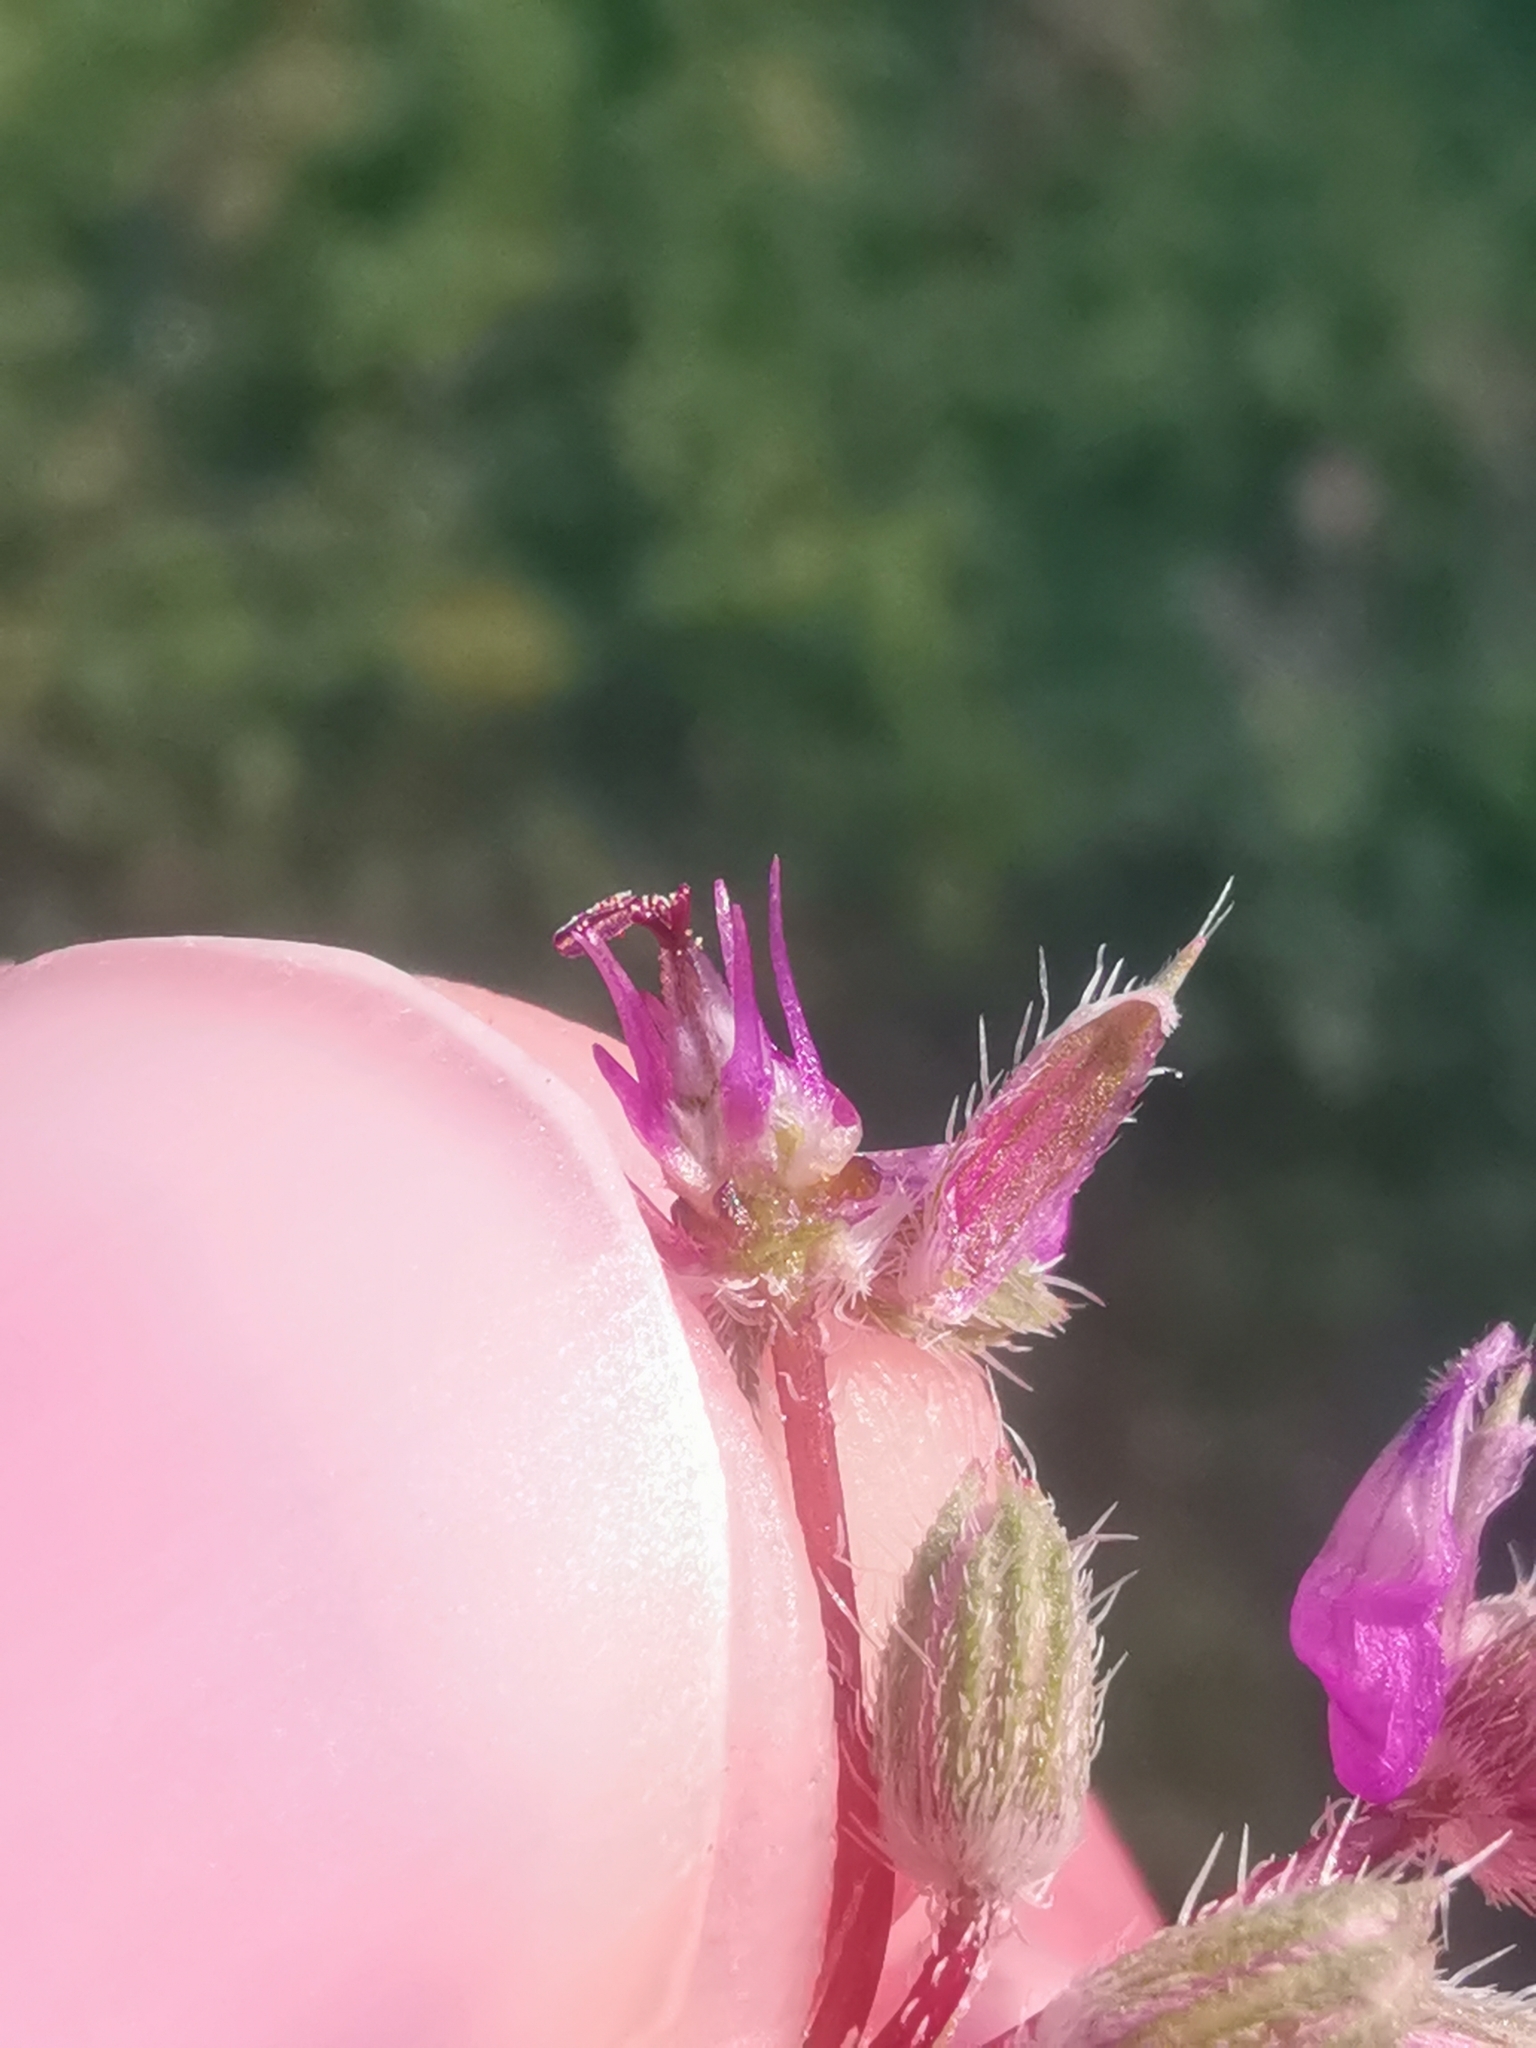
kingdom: Plantae
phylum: Tracheophyta
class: Magnoliopsida
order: Geraniales
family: Geraniaceae
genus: Erodium
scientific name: Erodium cicutarium
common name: Common stork's-bill
